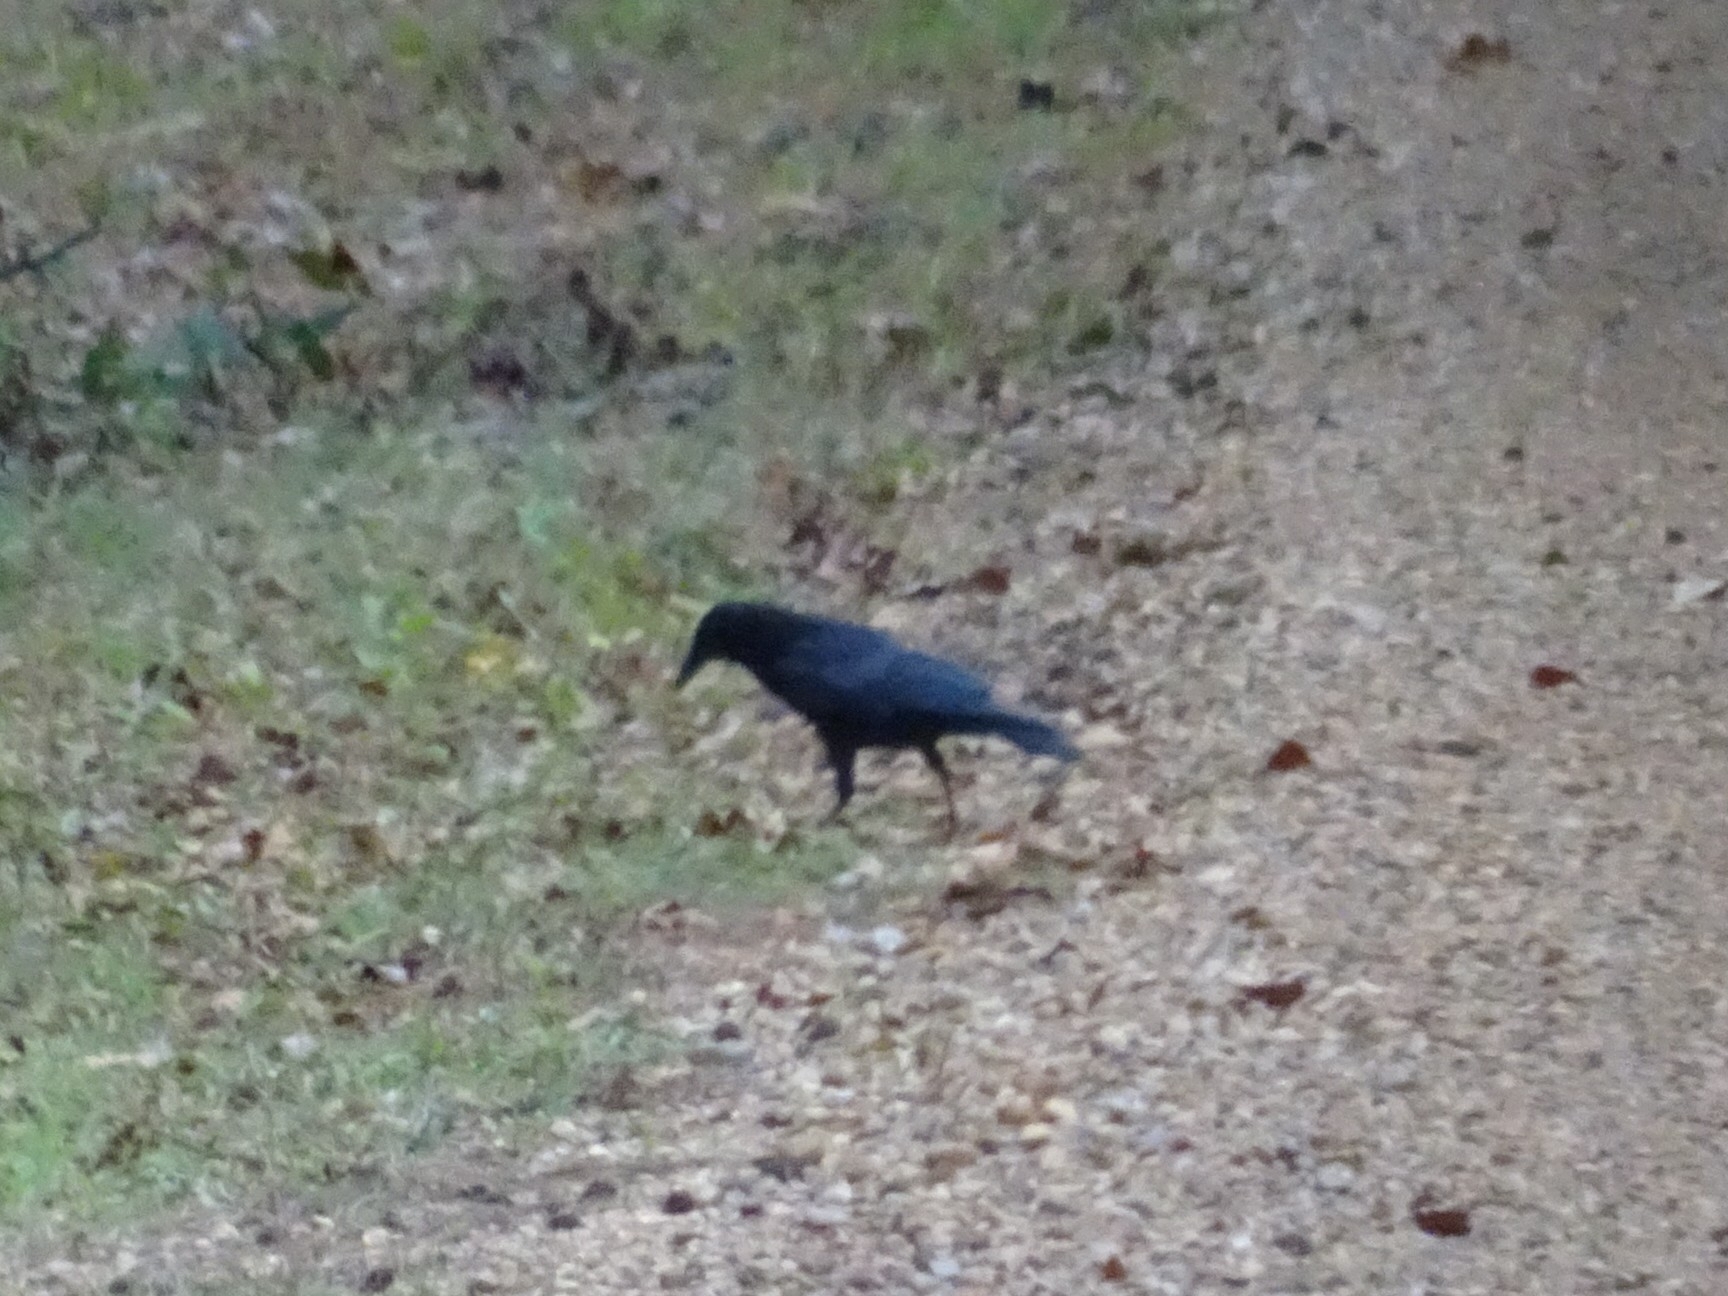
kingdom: Animalia
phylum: Chordata
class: Aves
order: Passeriformes
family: Corvidae
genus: Corvus
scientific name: Corvus brachyrhynchos
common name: American crow
